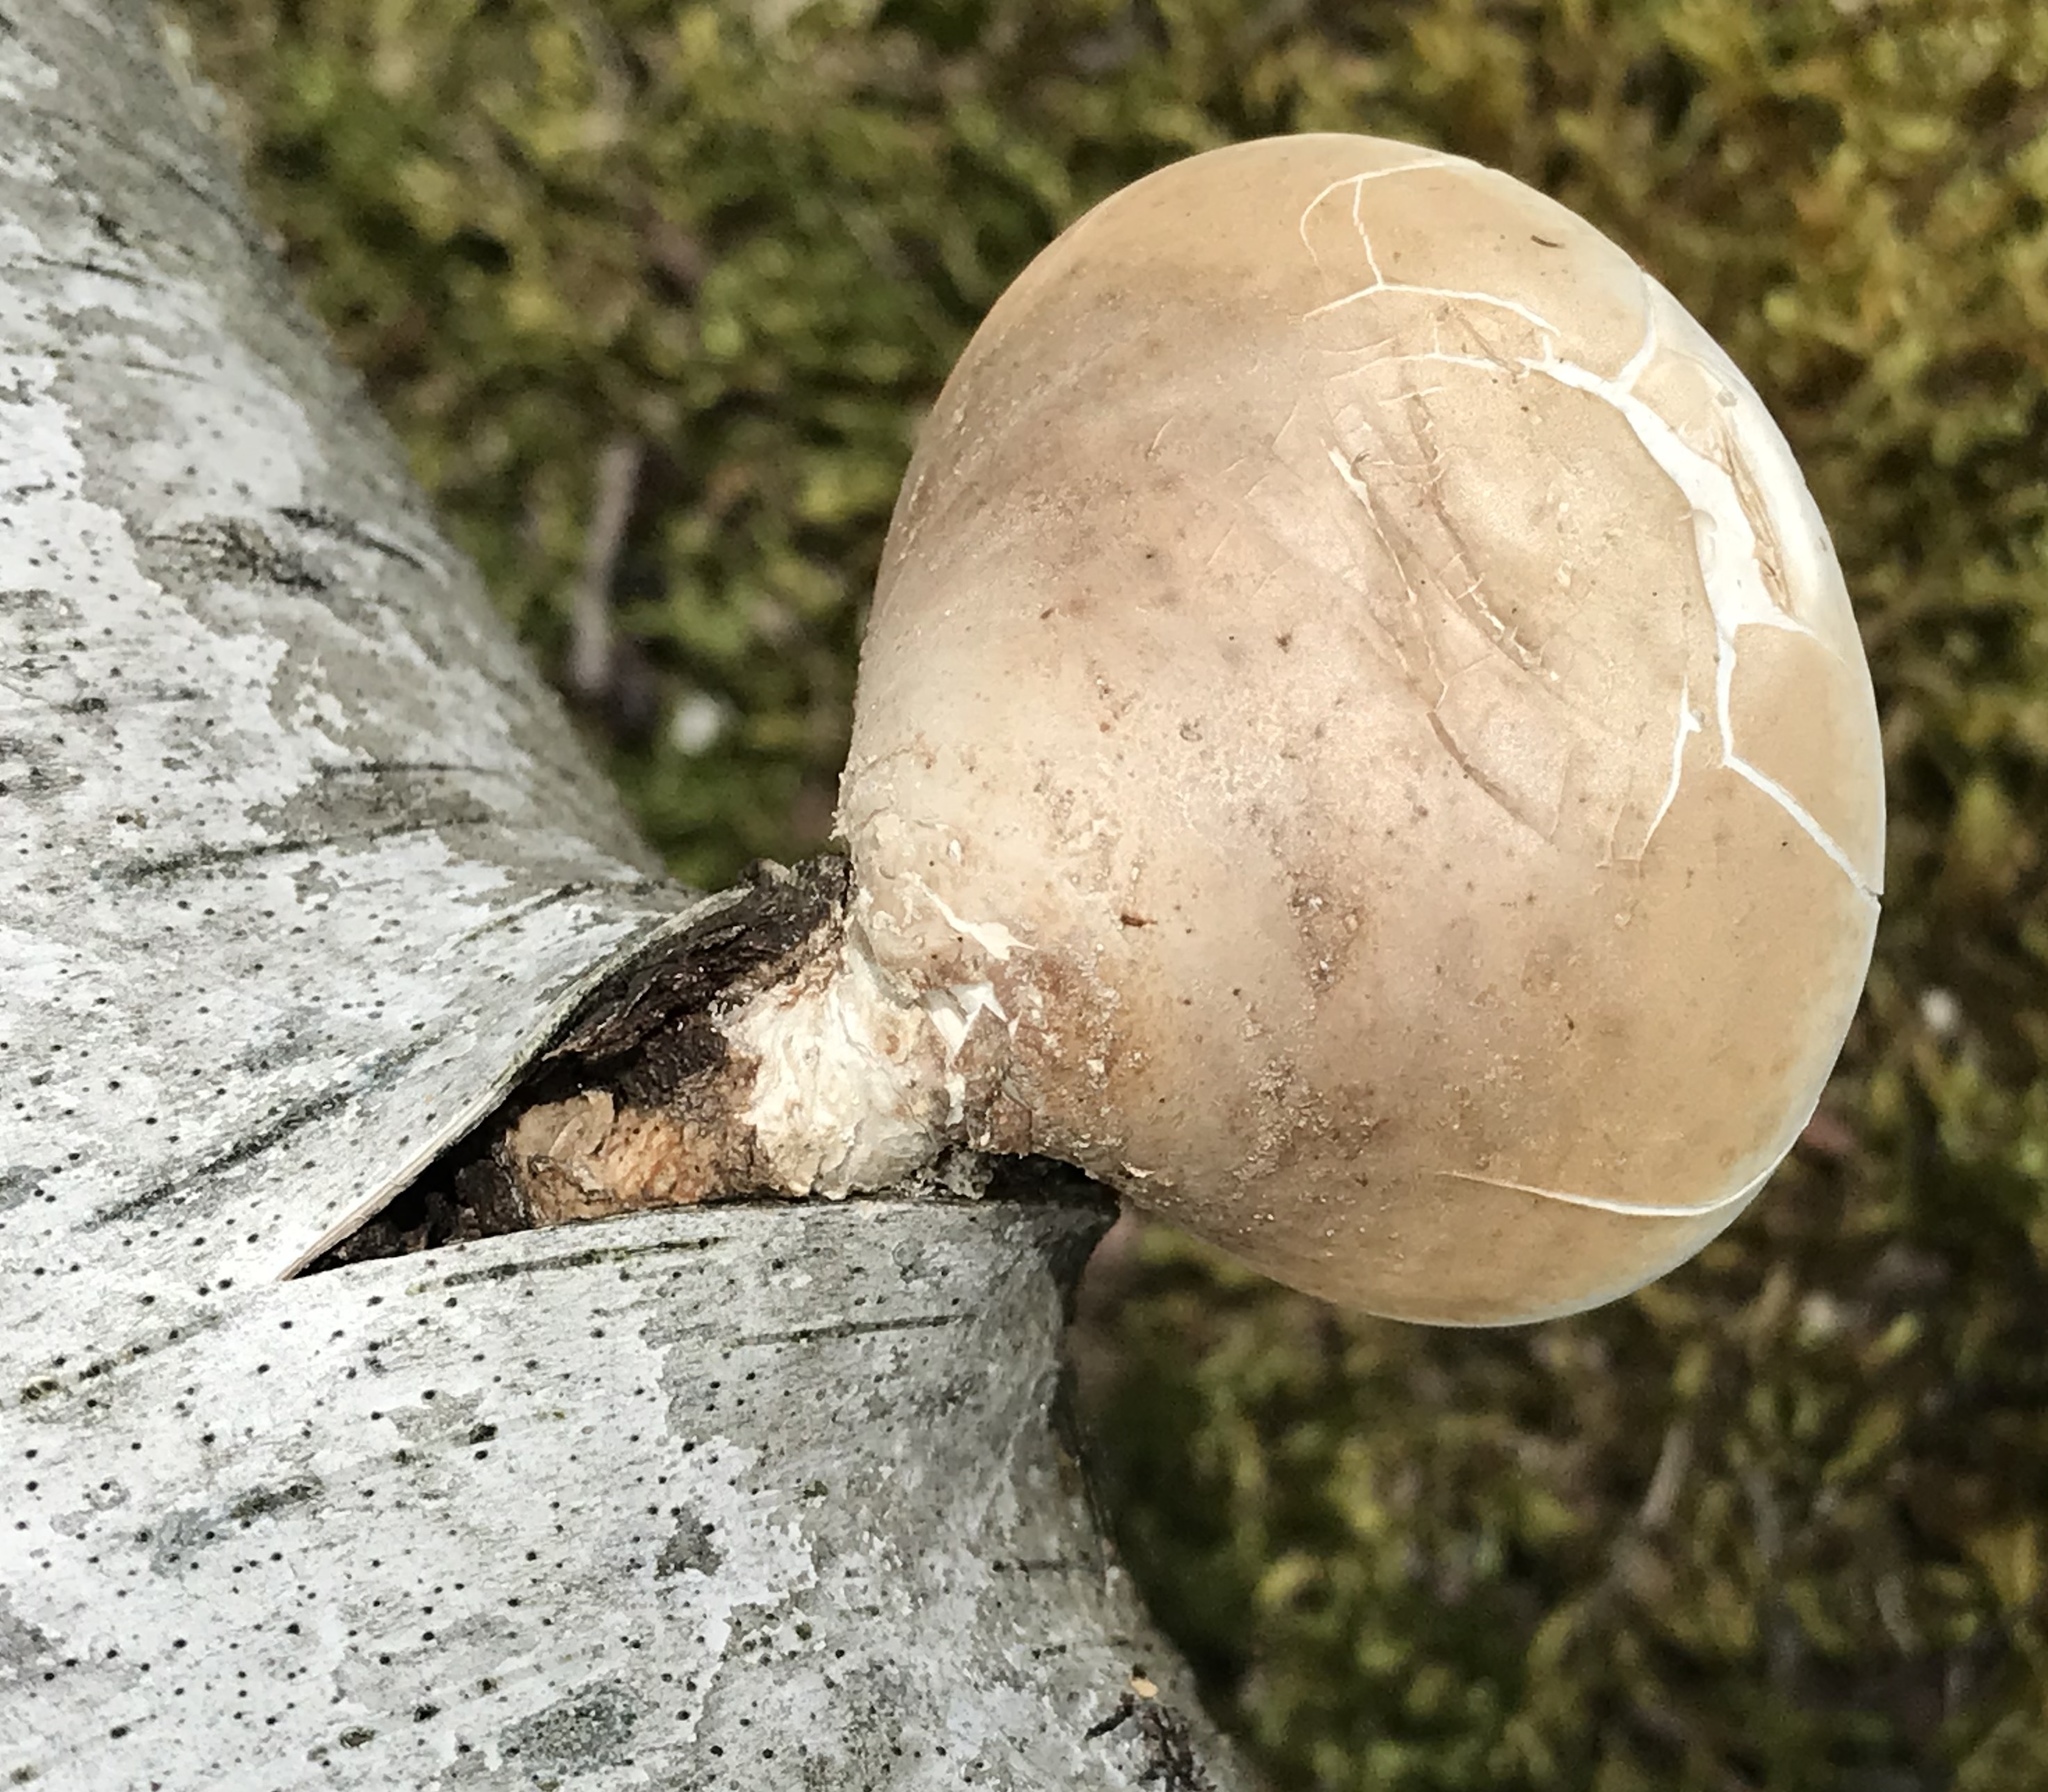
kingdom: Fungi
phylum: Basidiomycota
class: Agaricomycetes
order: Polyporales
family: Fomitopsidaceae
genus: Fomitopsis
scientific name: Fomitopsis betulina
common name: Birch polypore
